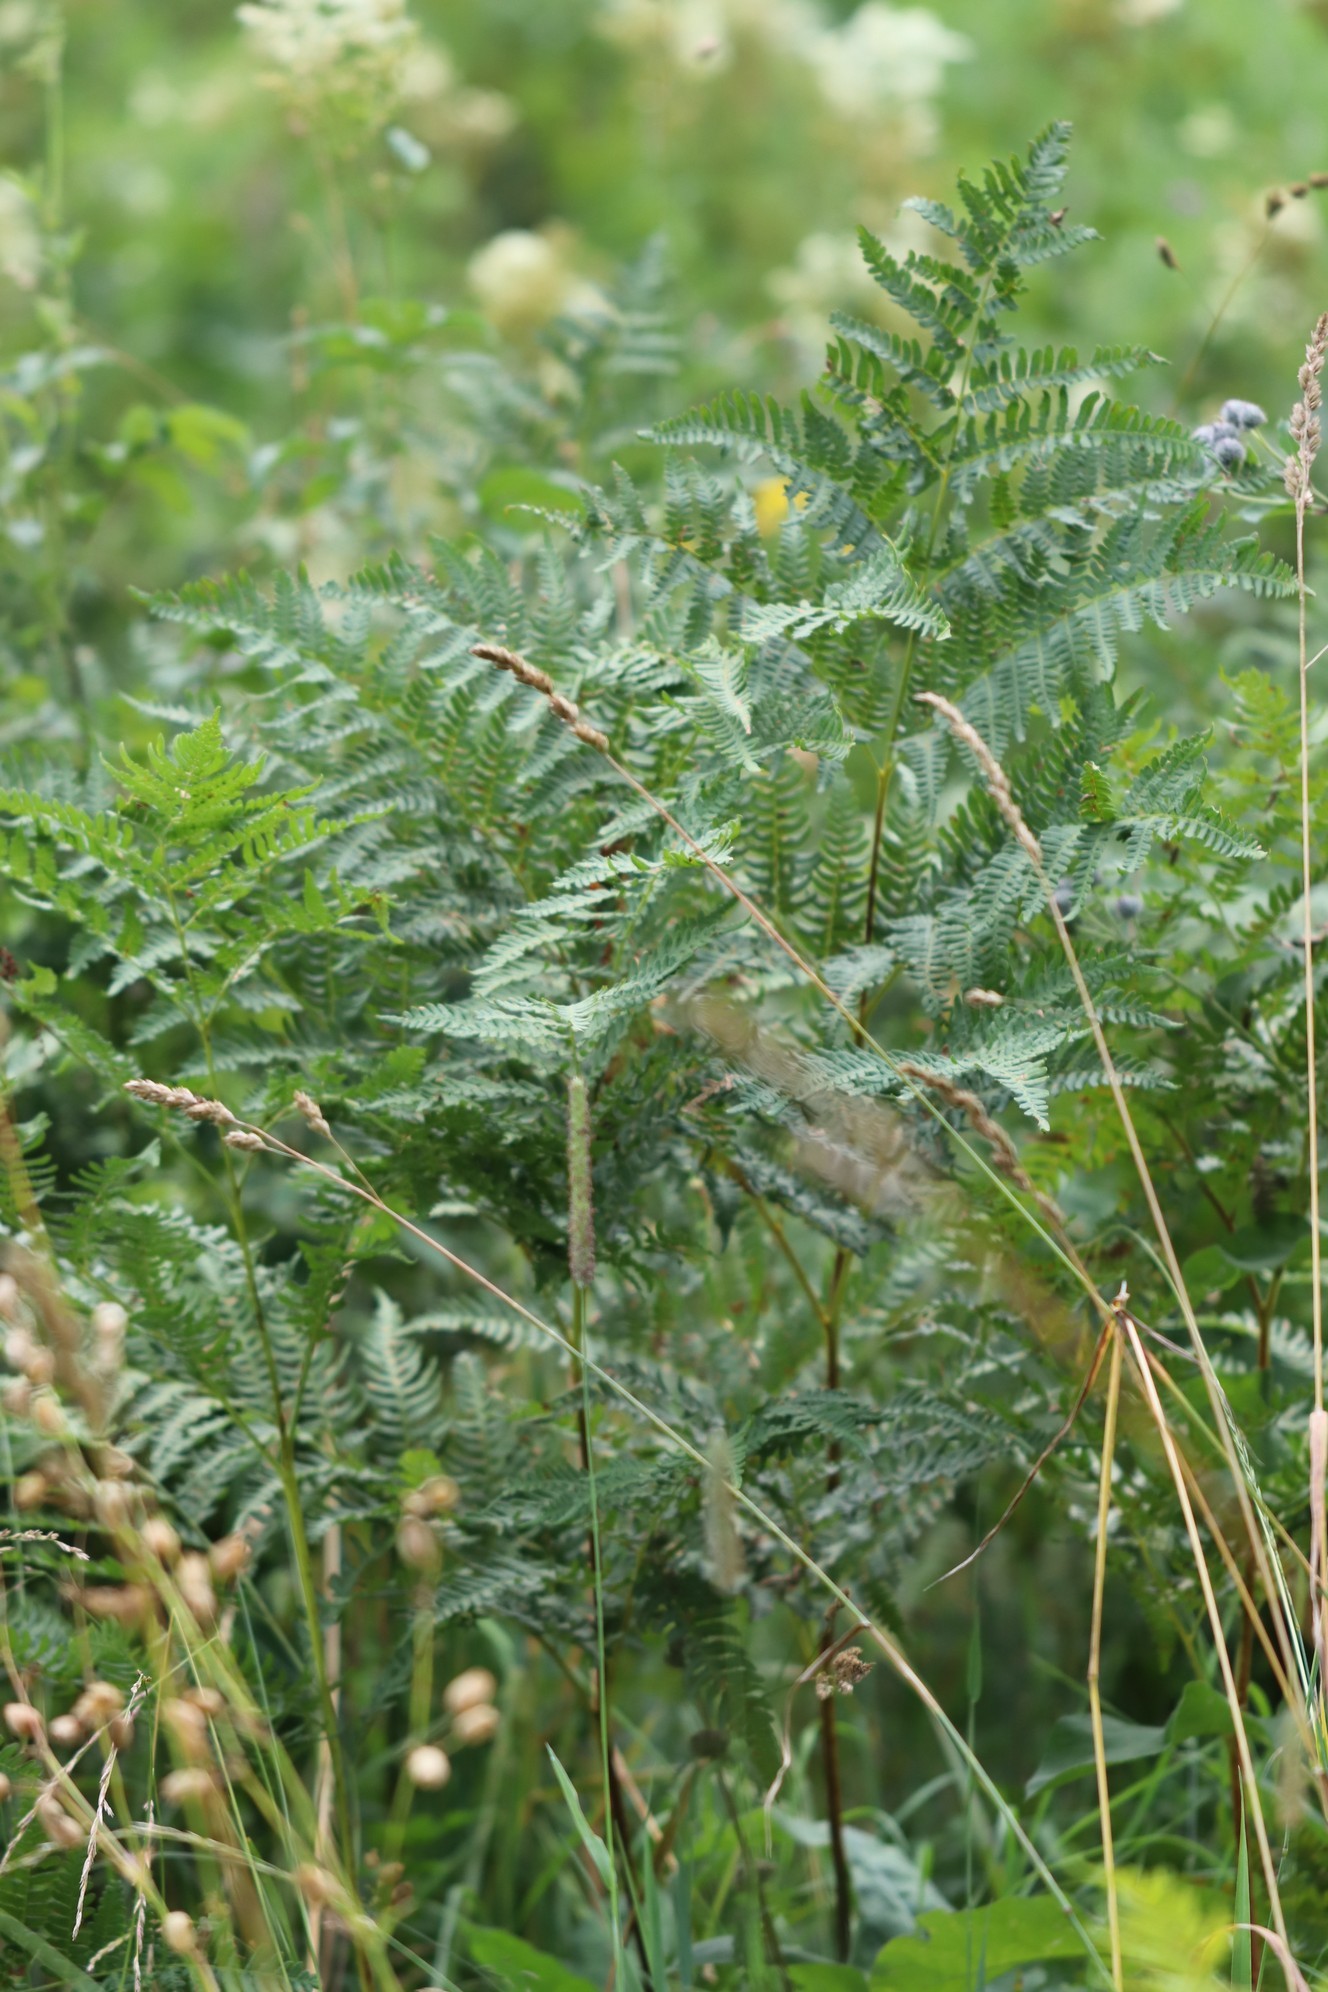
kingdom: Plantae
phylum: Tracheophyta
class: Polypodiopsida
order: Polypodiales
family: Dennstaedtiaceae
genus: Pteridium
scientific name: Pteridium aquilinum
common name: Bracken
